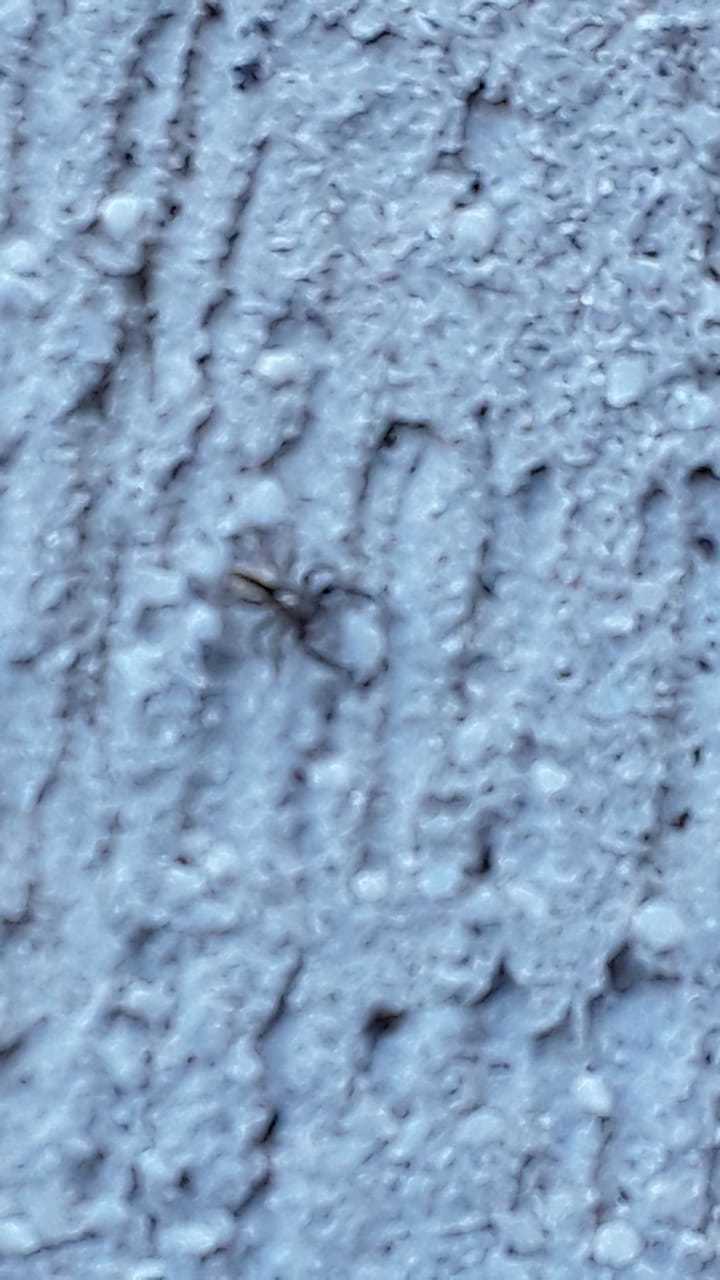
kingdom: Animalia
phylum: Arthropoda
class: Arachnida
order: Araneae
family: Salticidae
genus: Menemerus
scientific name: Menemerus bivittatus
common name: Gray wall jumper
